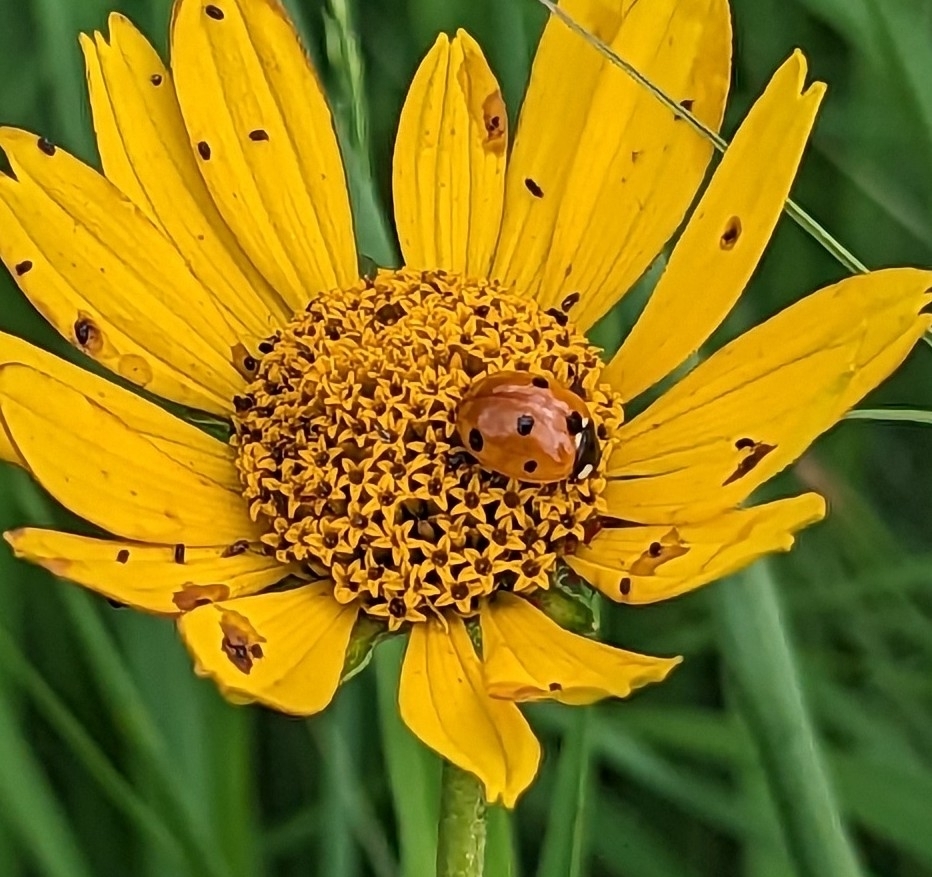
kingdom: Animalia
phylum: Arthropoda
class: Insecta
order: Coleoptera
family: Coccinellidae
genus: Coccinella
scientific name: Coccinella septempunctata
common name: Sevenspotted lady beetle
